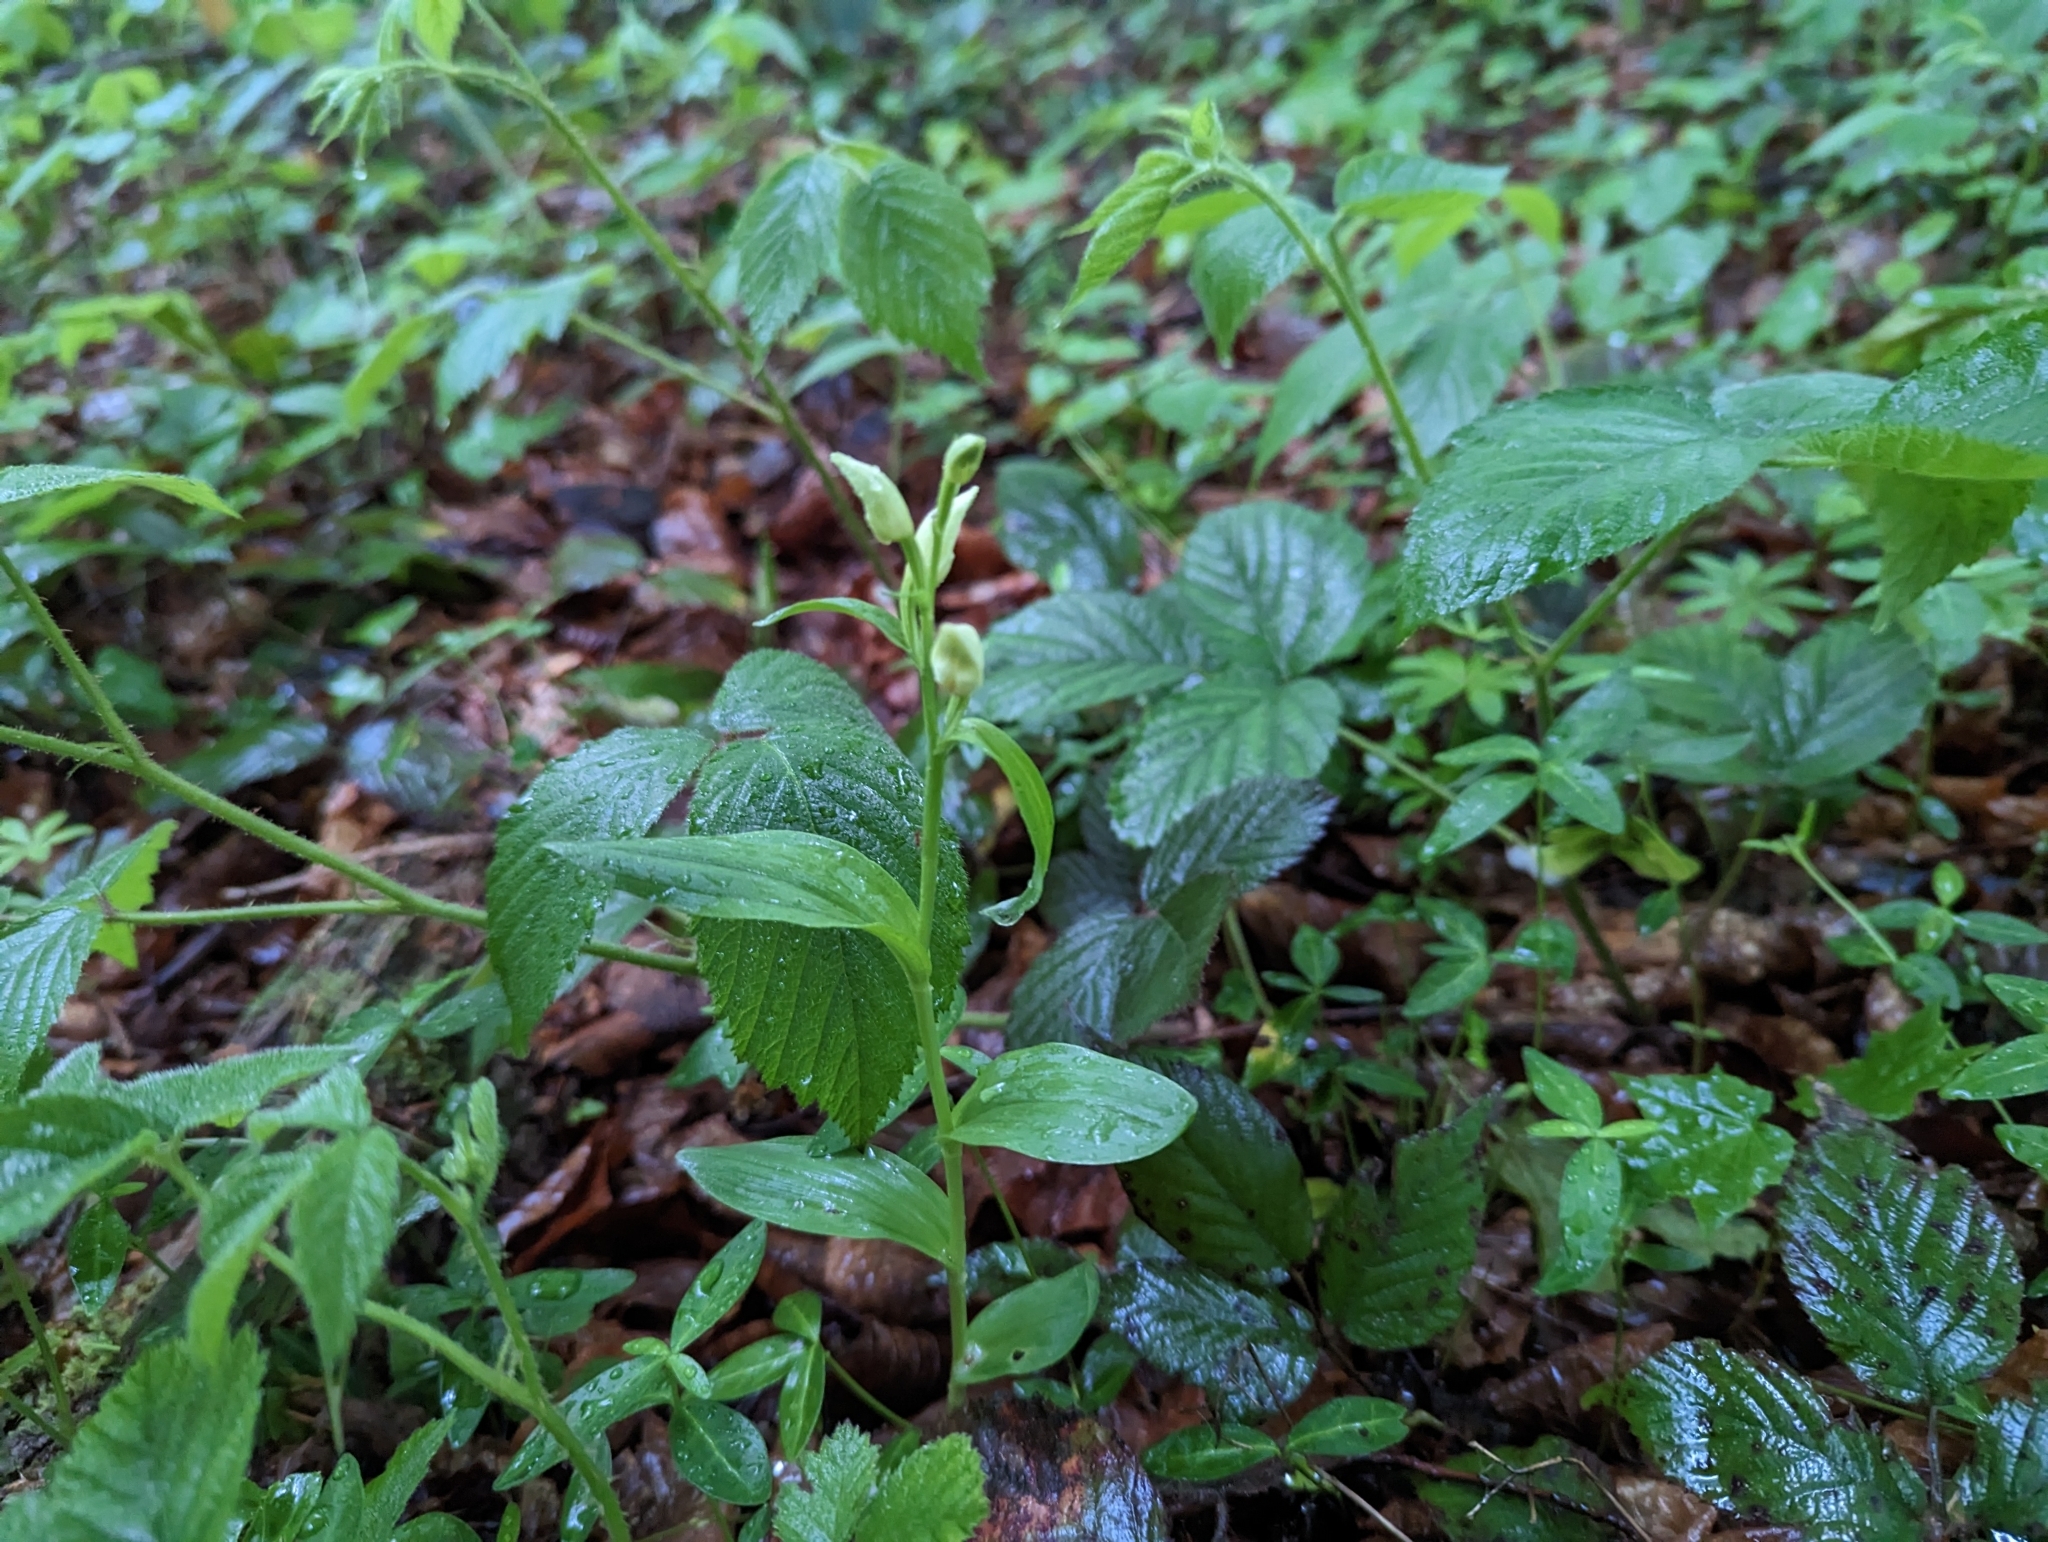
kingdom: Plantae
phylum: Tracheophyta
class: Liliopsida
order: Asparagales
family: Orchidaceae
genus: Cephalanthera
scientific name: Cephalanthera damasonium
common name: White helleborine
